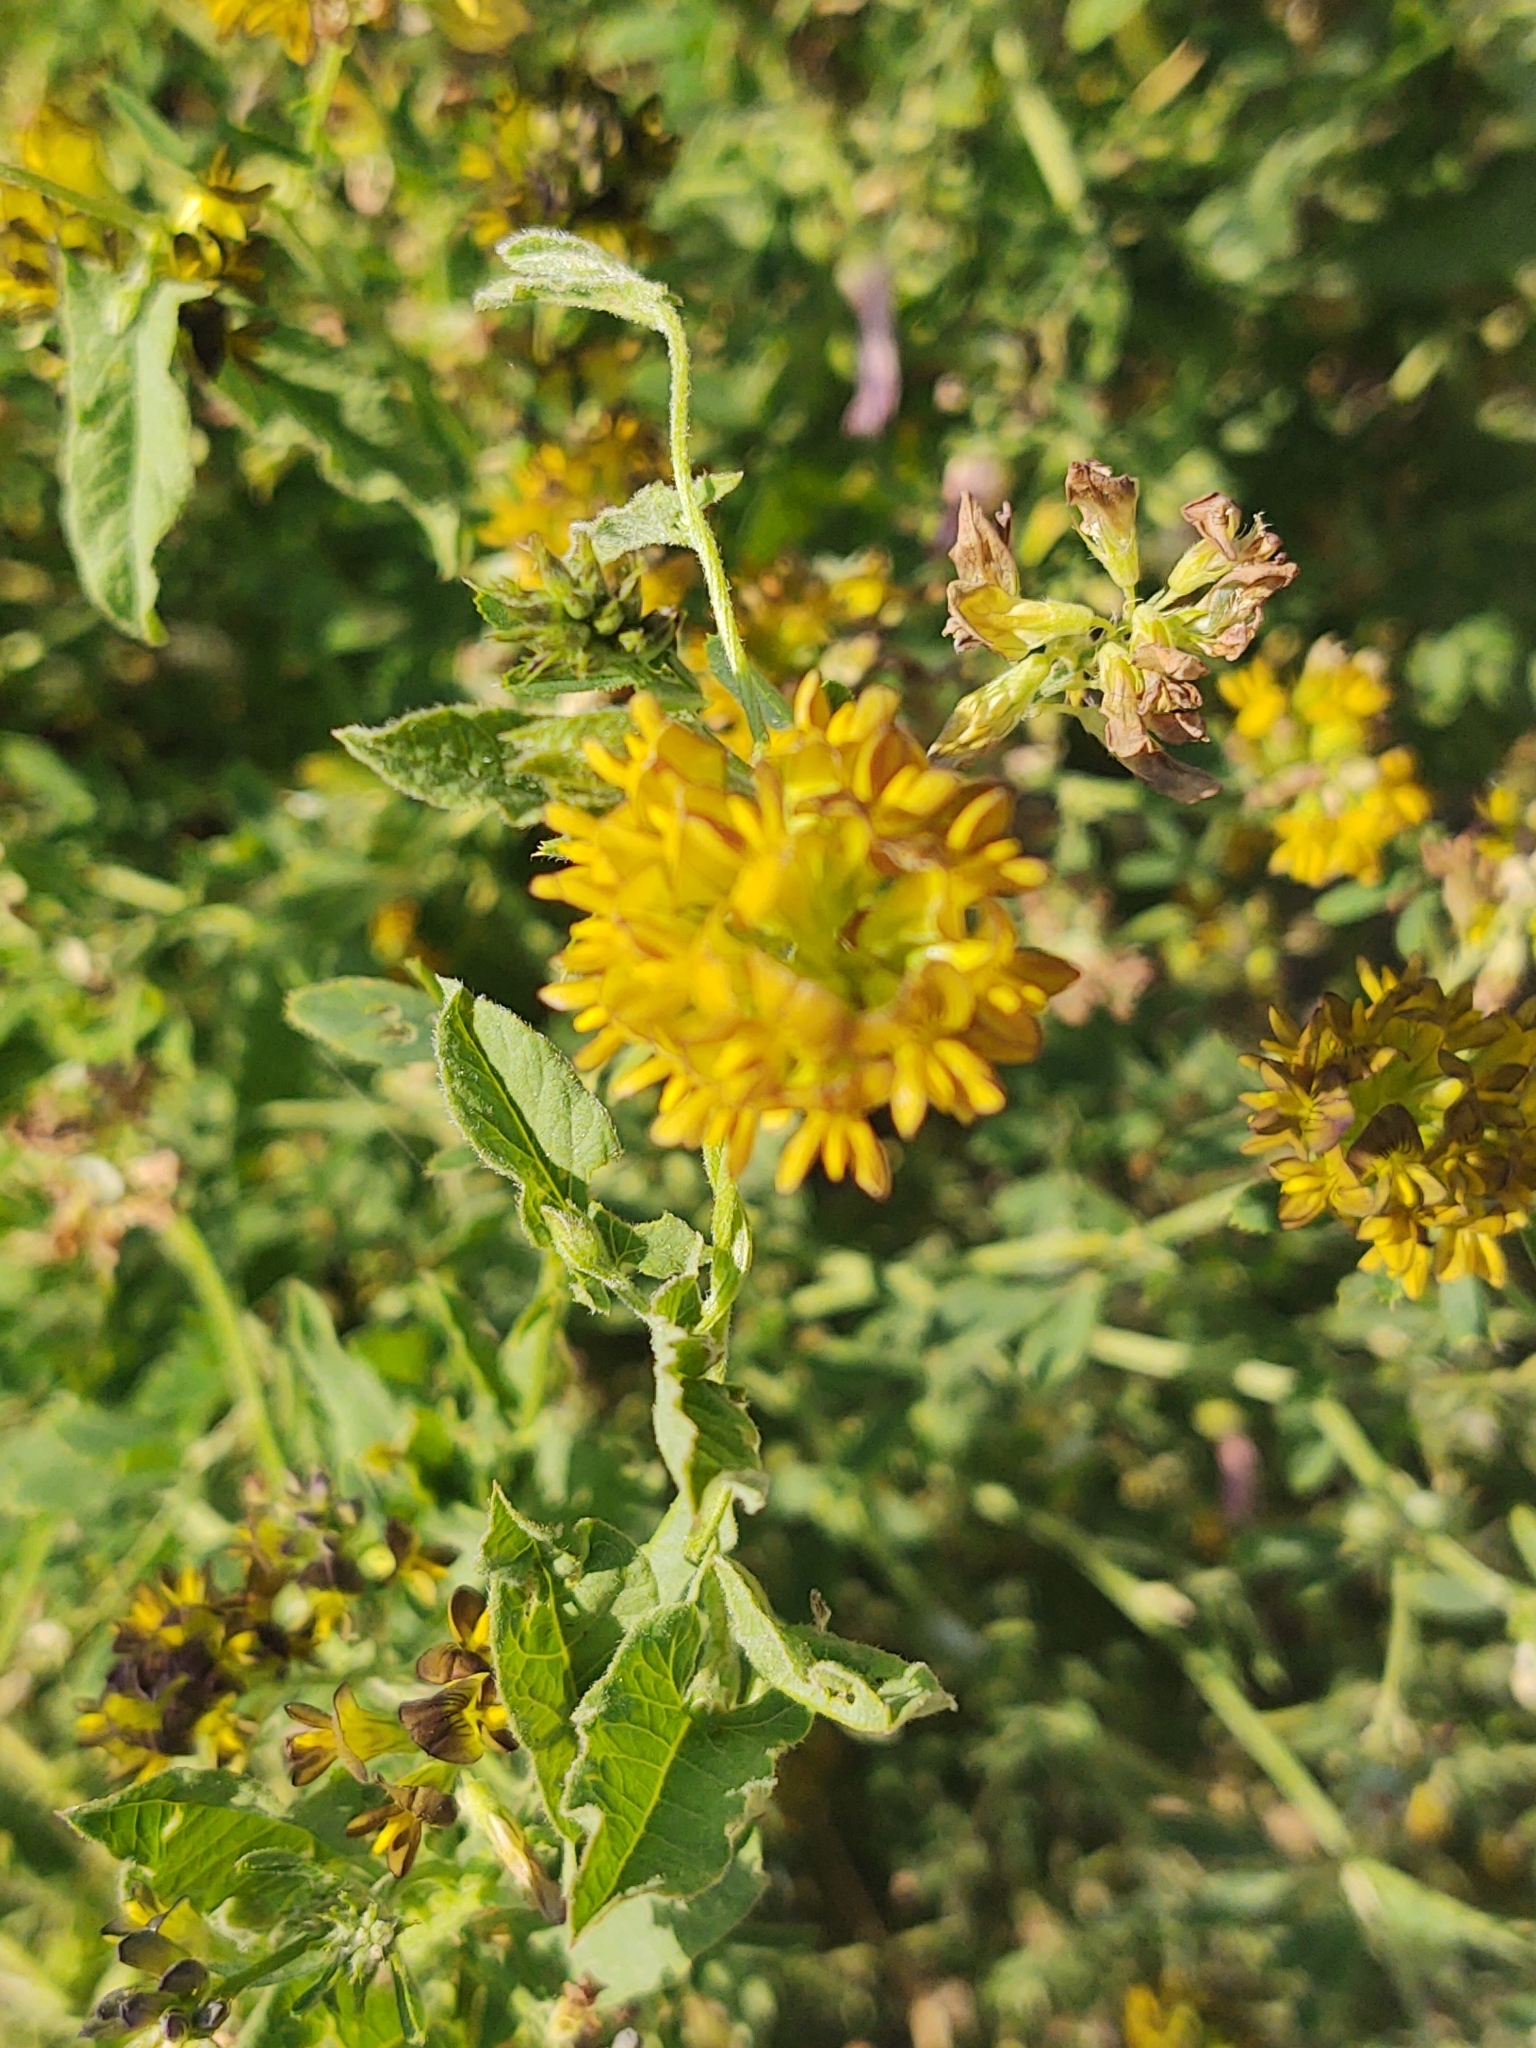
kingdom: Plantae
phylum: Tracheophyta
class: Magnoliopsida
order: Fabales
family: Fabaceae
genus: Medicago
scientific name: Medicago varia
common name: Sand lucerne
